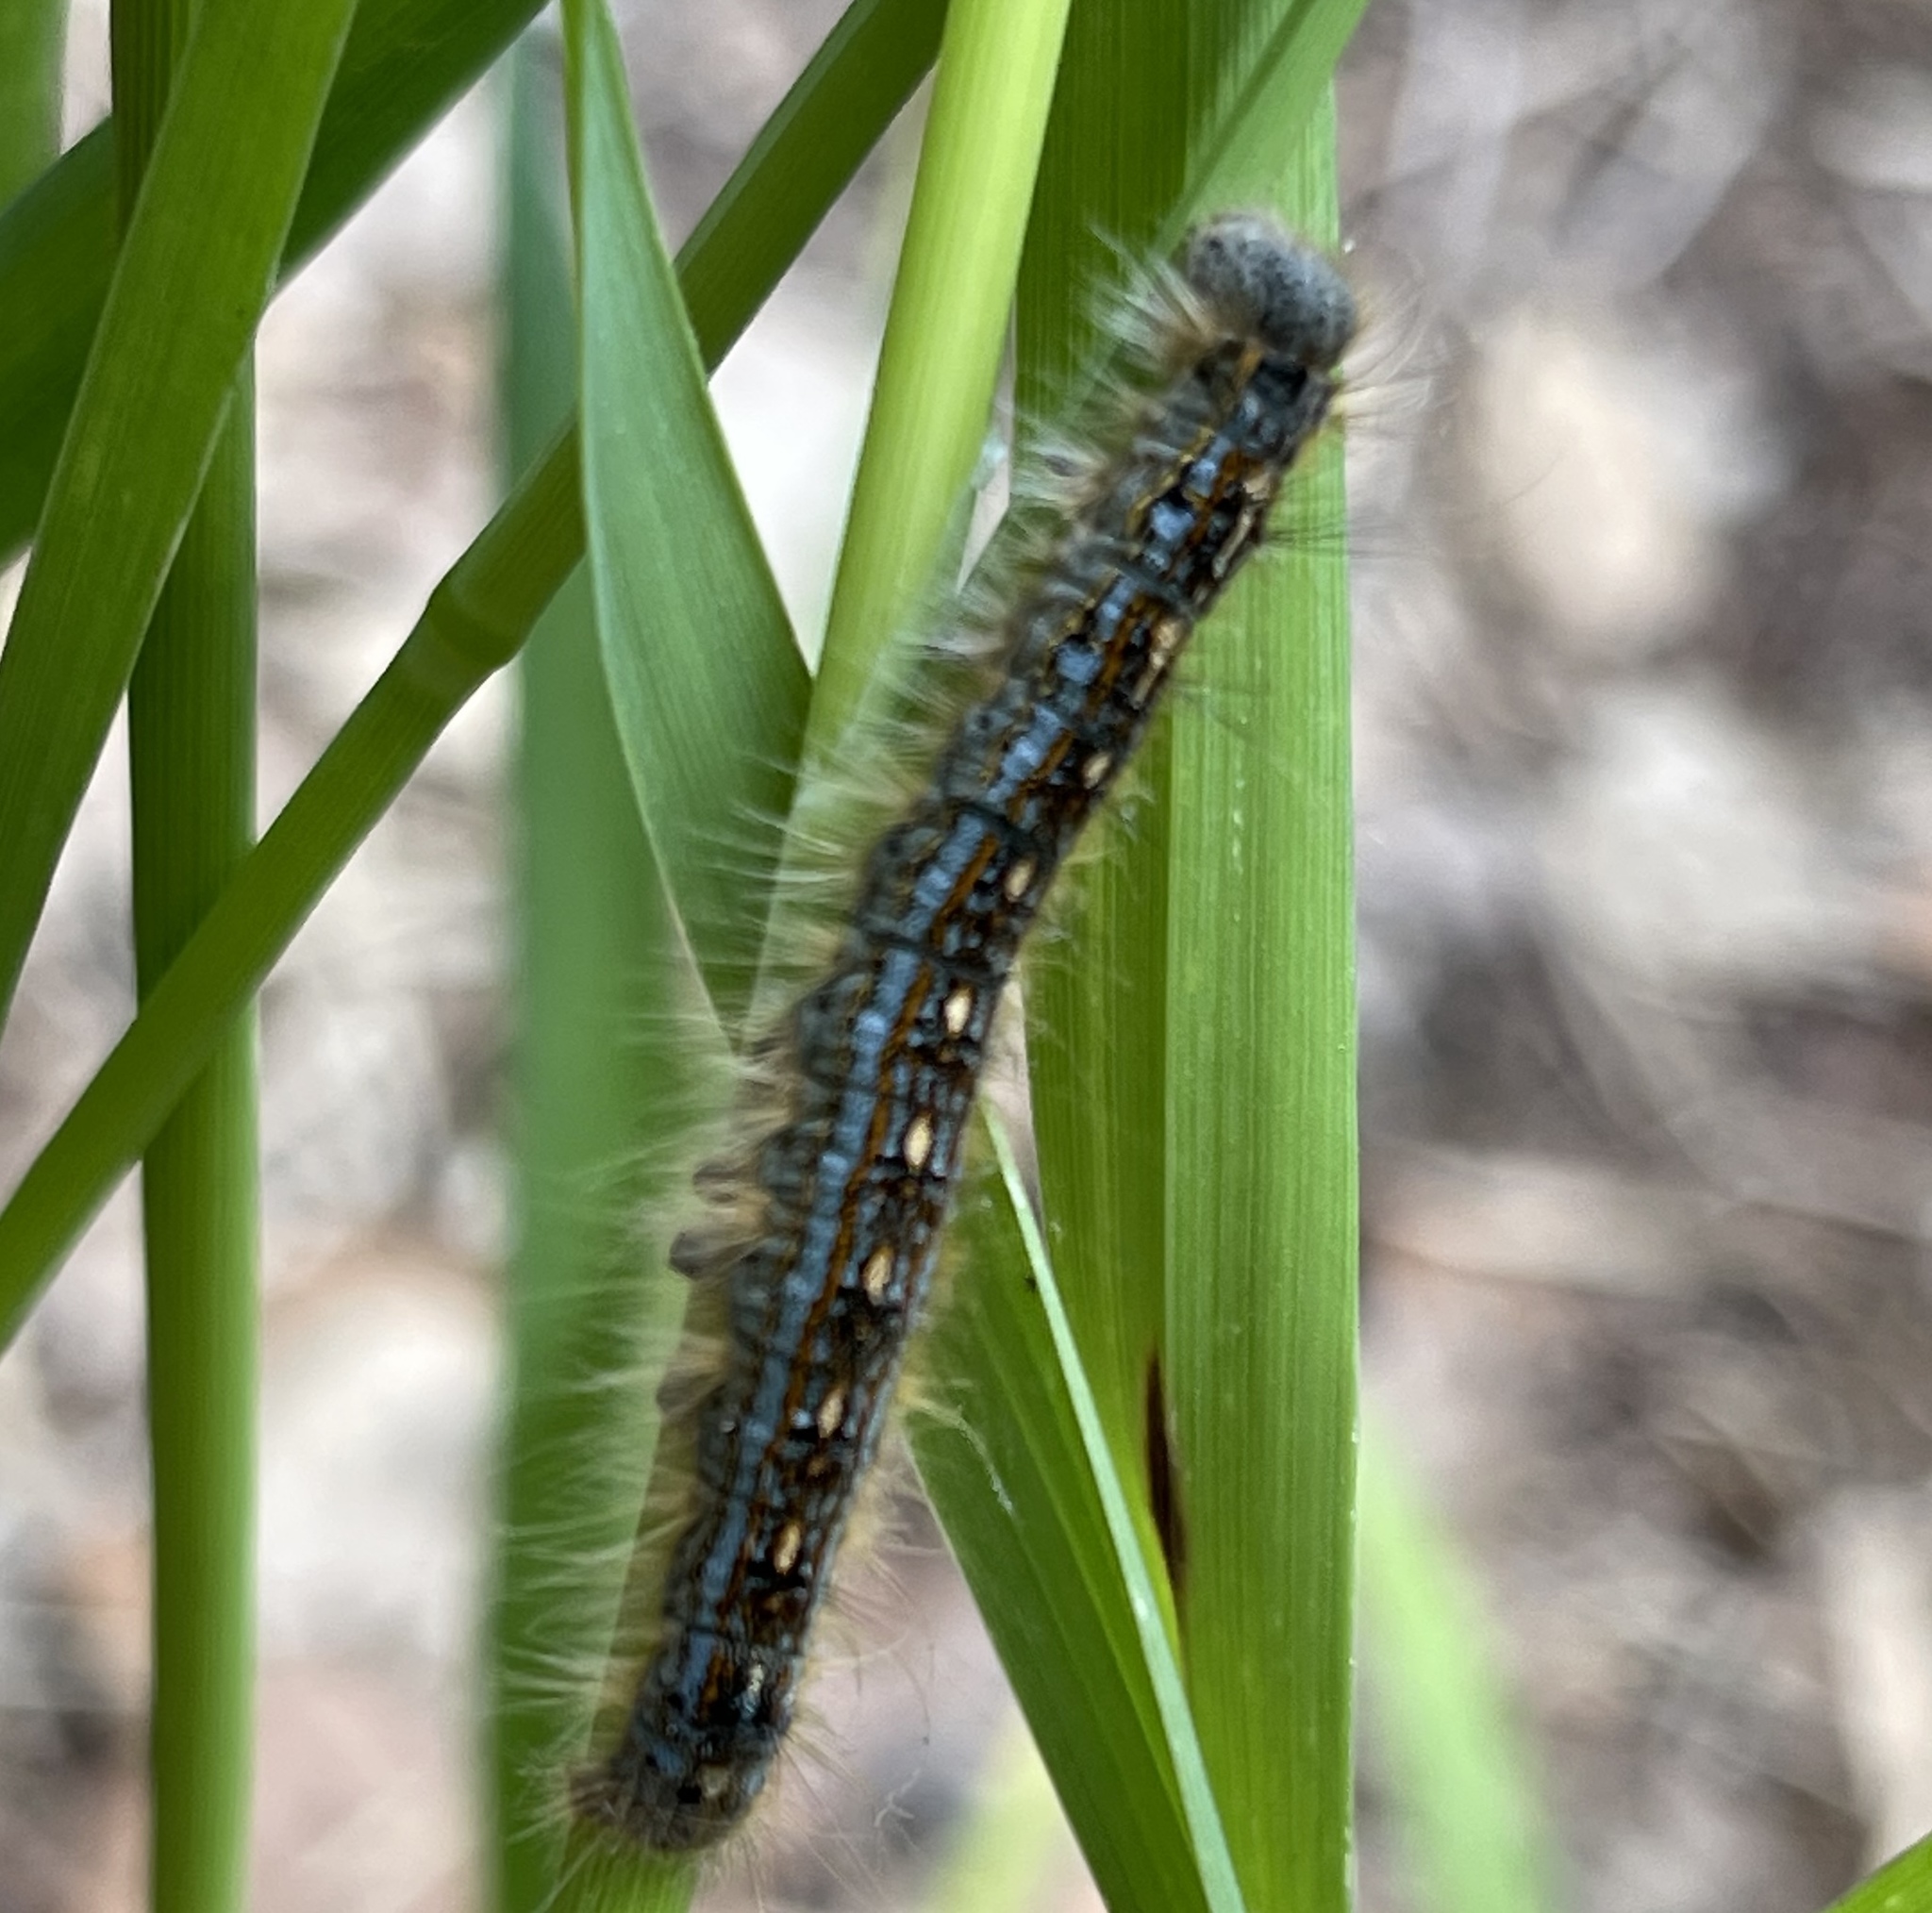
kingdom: Animalia
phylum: Arthropoda
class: Insecta
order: Lepidoptera
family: Lasiocampidae
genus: Malacosoma
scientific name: Malacosoma disstria
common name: Forest tent caterpillar
